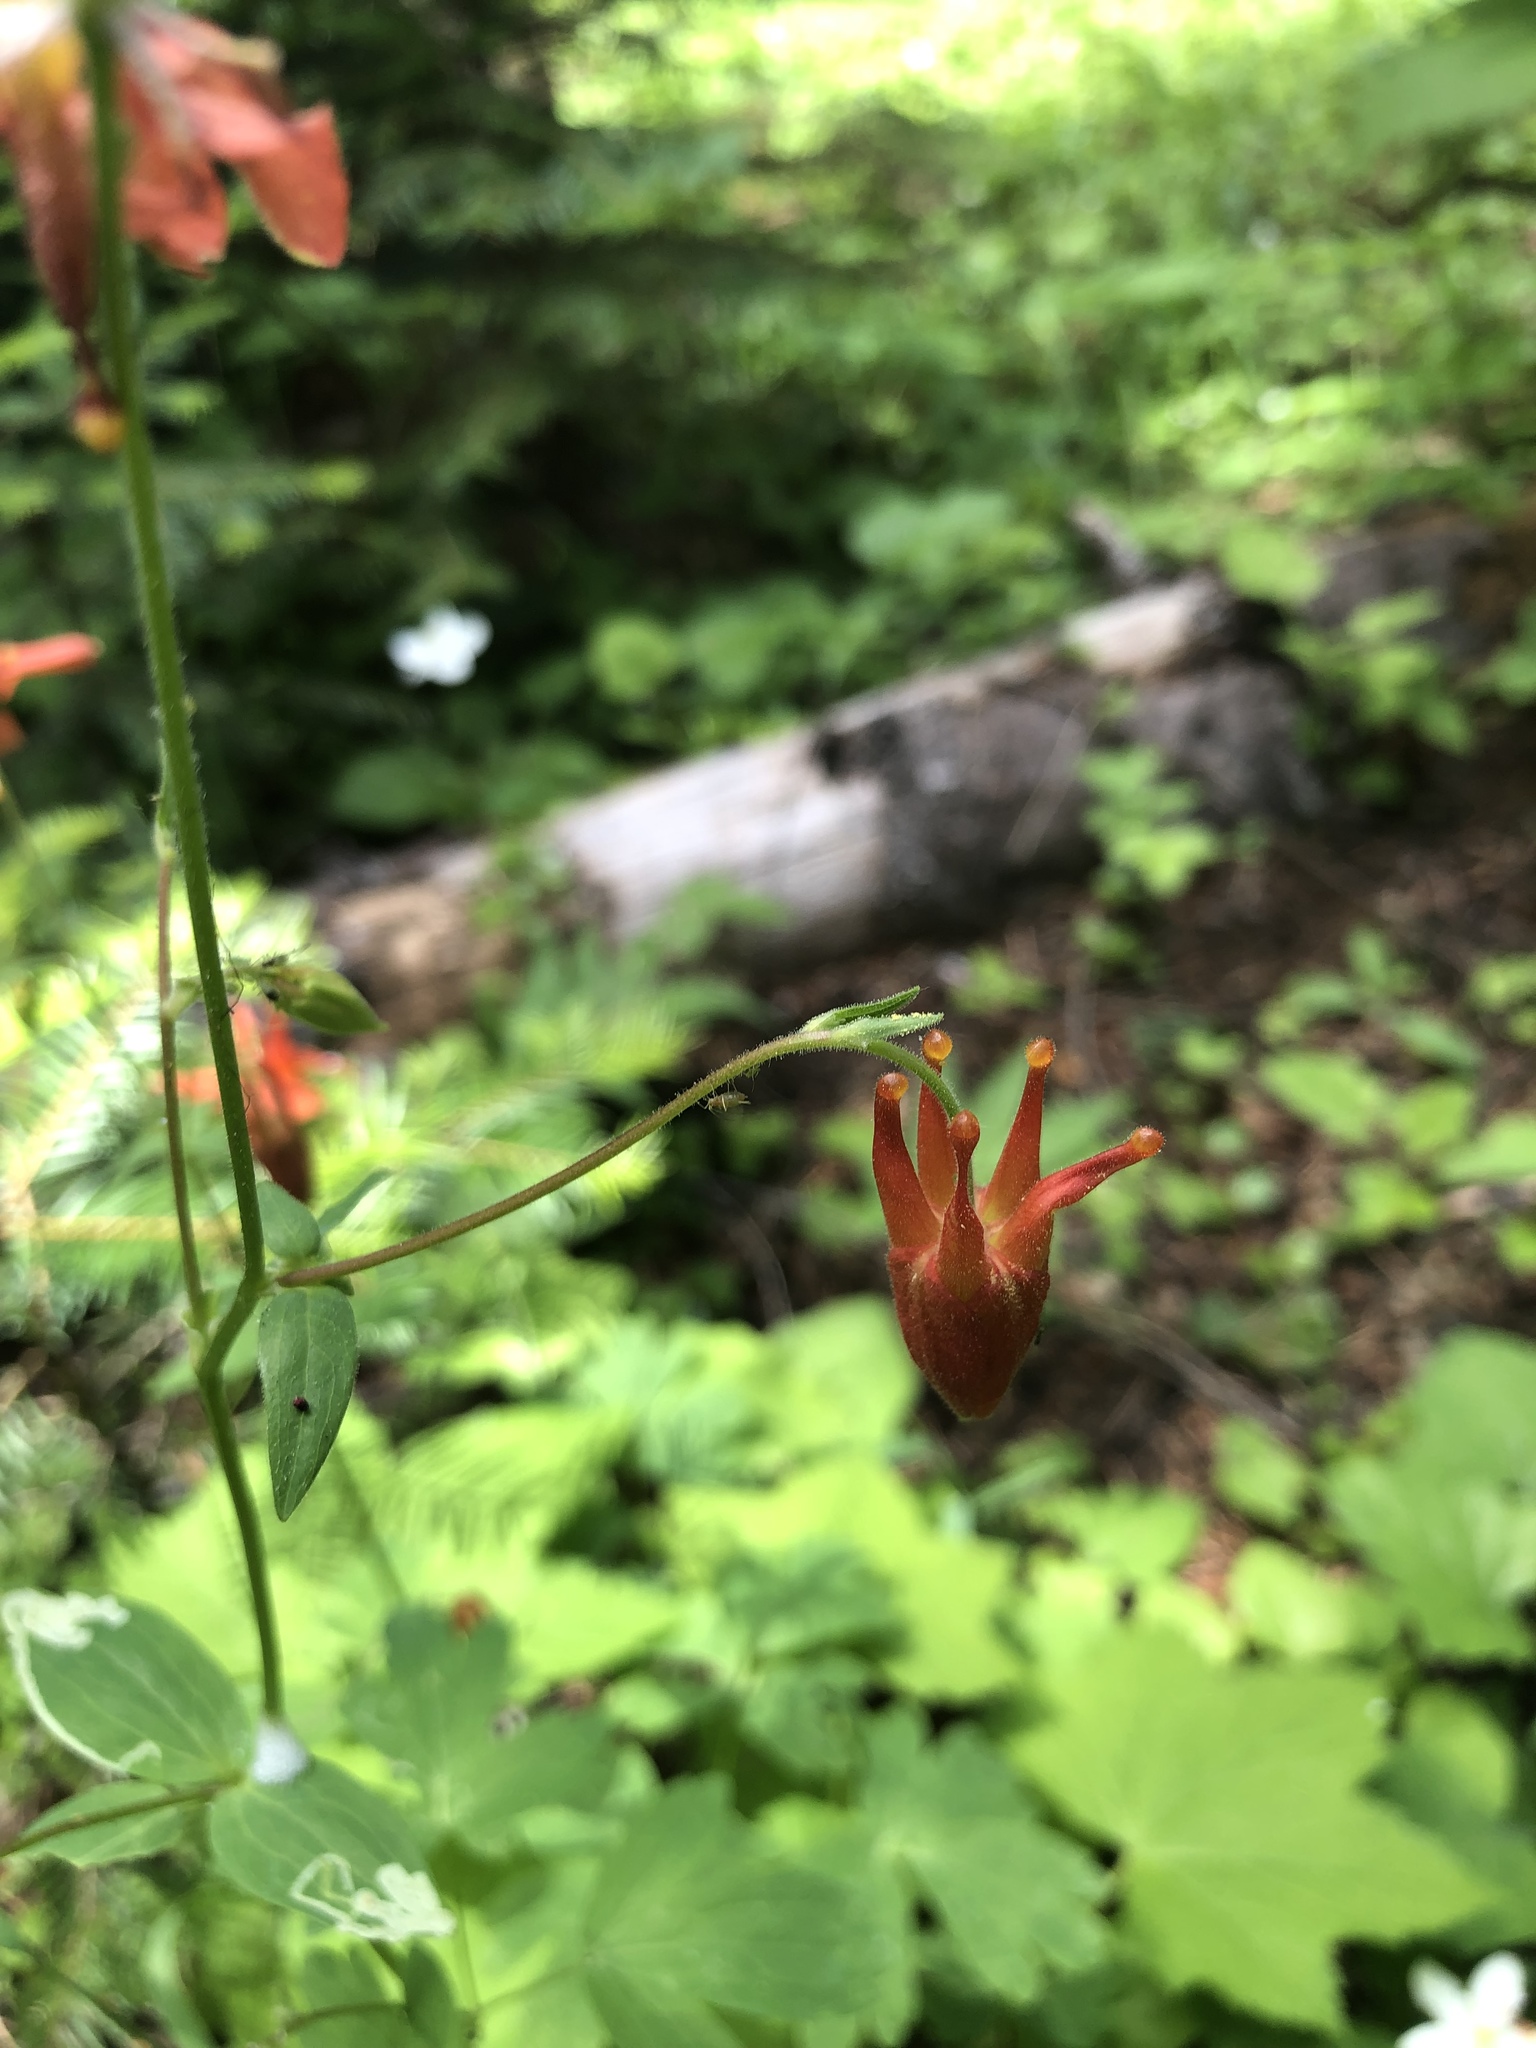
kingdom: Plantae
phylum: Tracheophyta
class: Magnoliopsida
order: Ranunculales
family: Ranunculaceae
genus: Aquilegia
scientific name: Aquilegia formosa
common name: Sitka columbine
